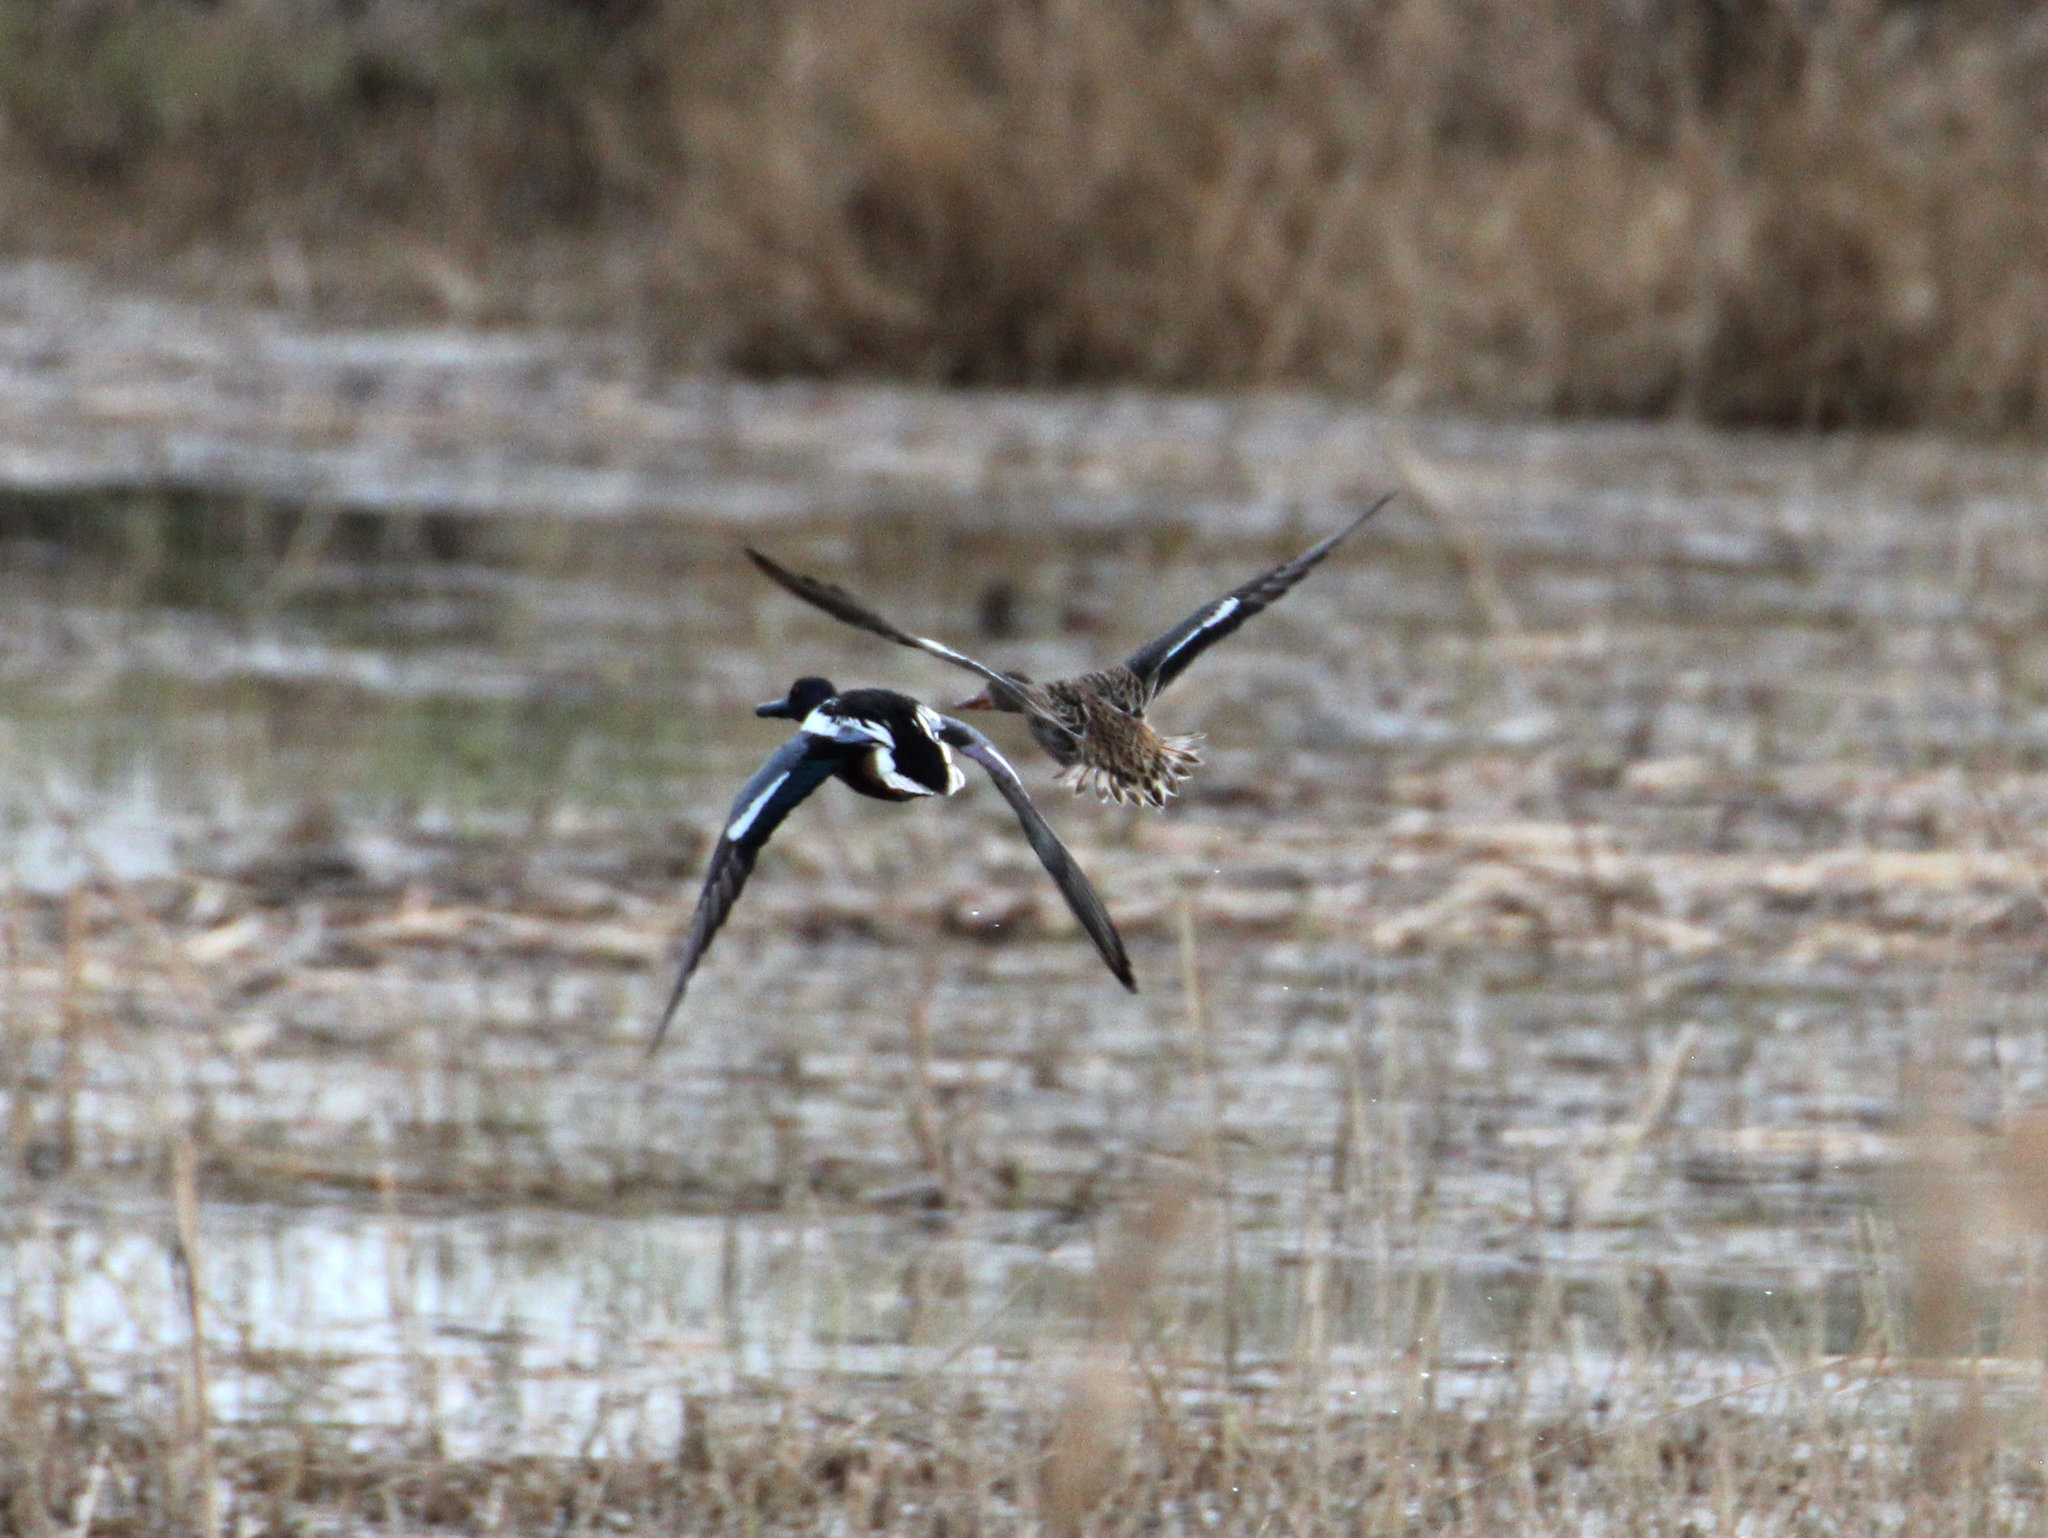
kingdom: Animalia
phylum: Chordata
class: Aves
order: Anseriformes
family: Anatidae
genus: Spatula
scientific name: Spatula clypeata
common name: Northern shoveler
